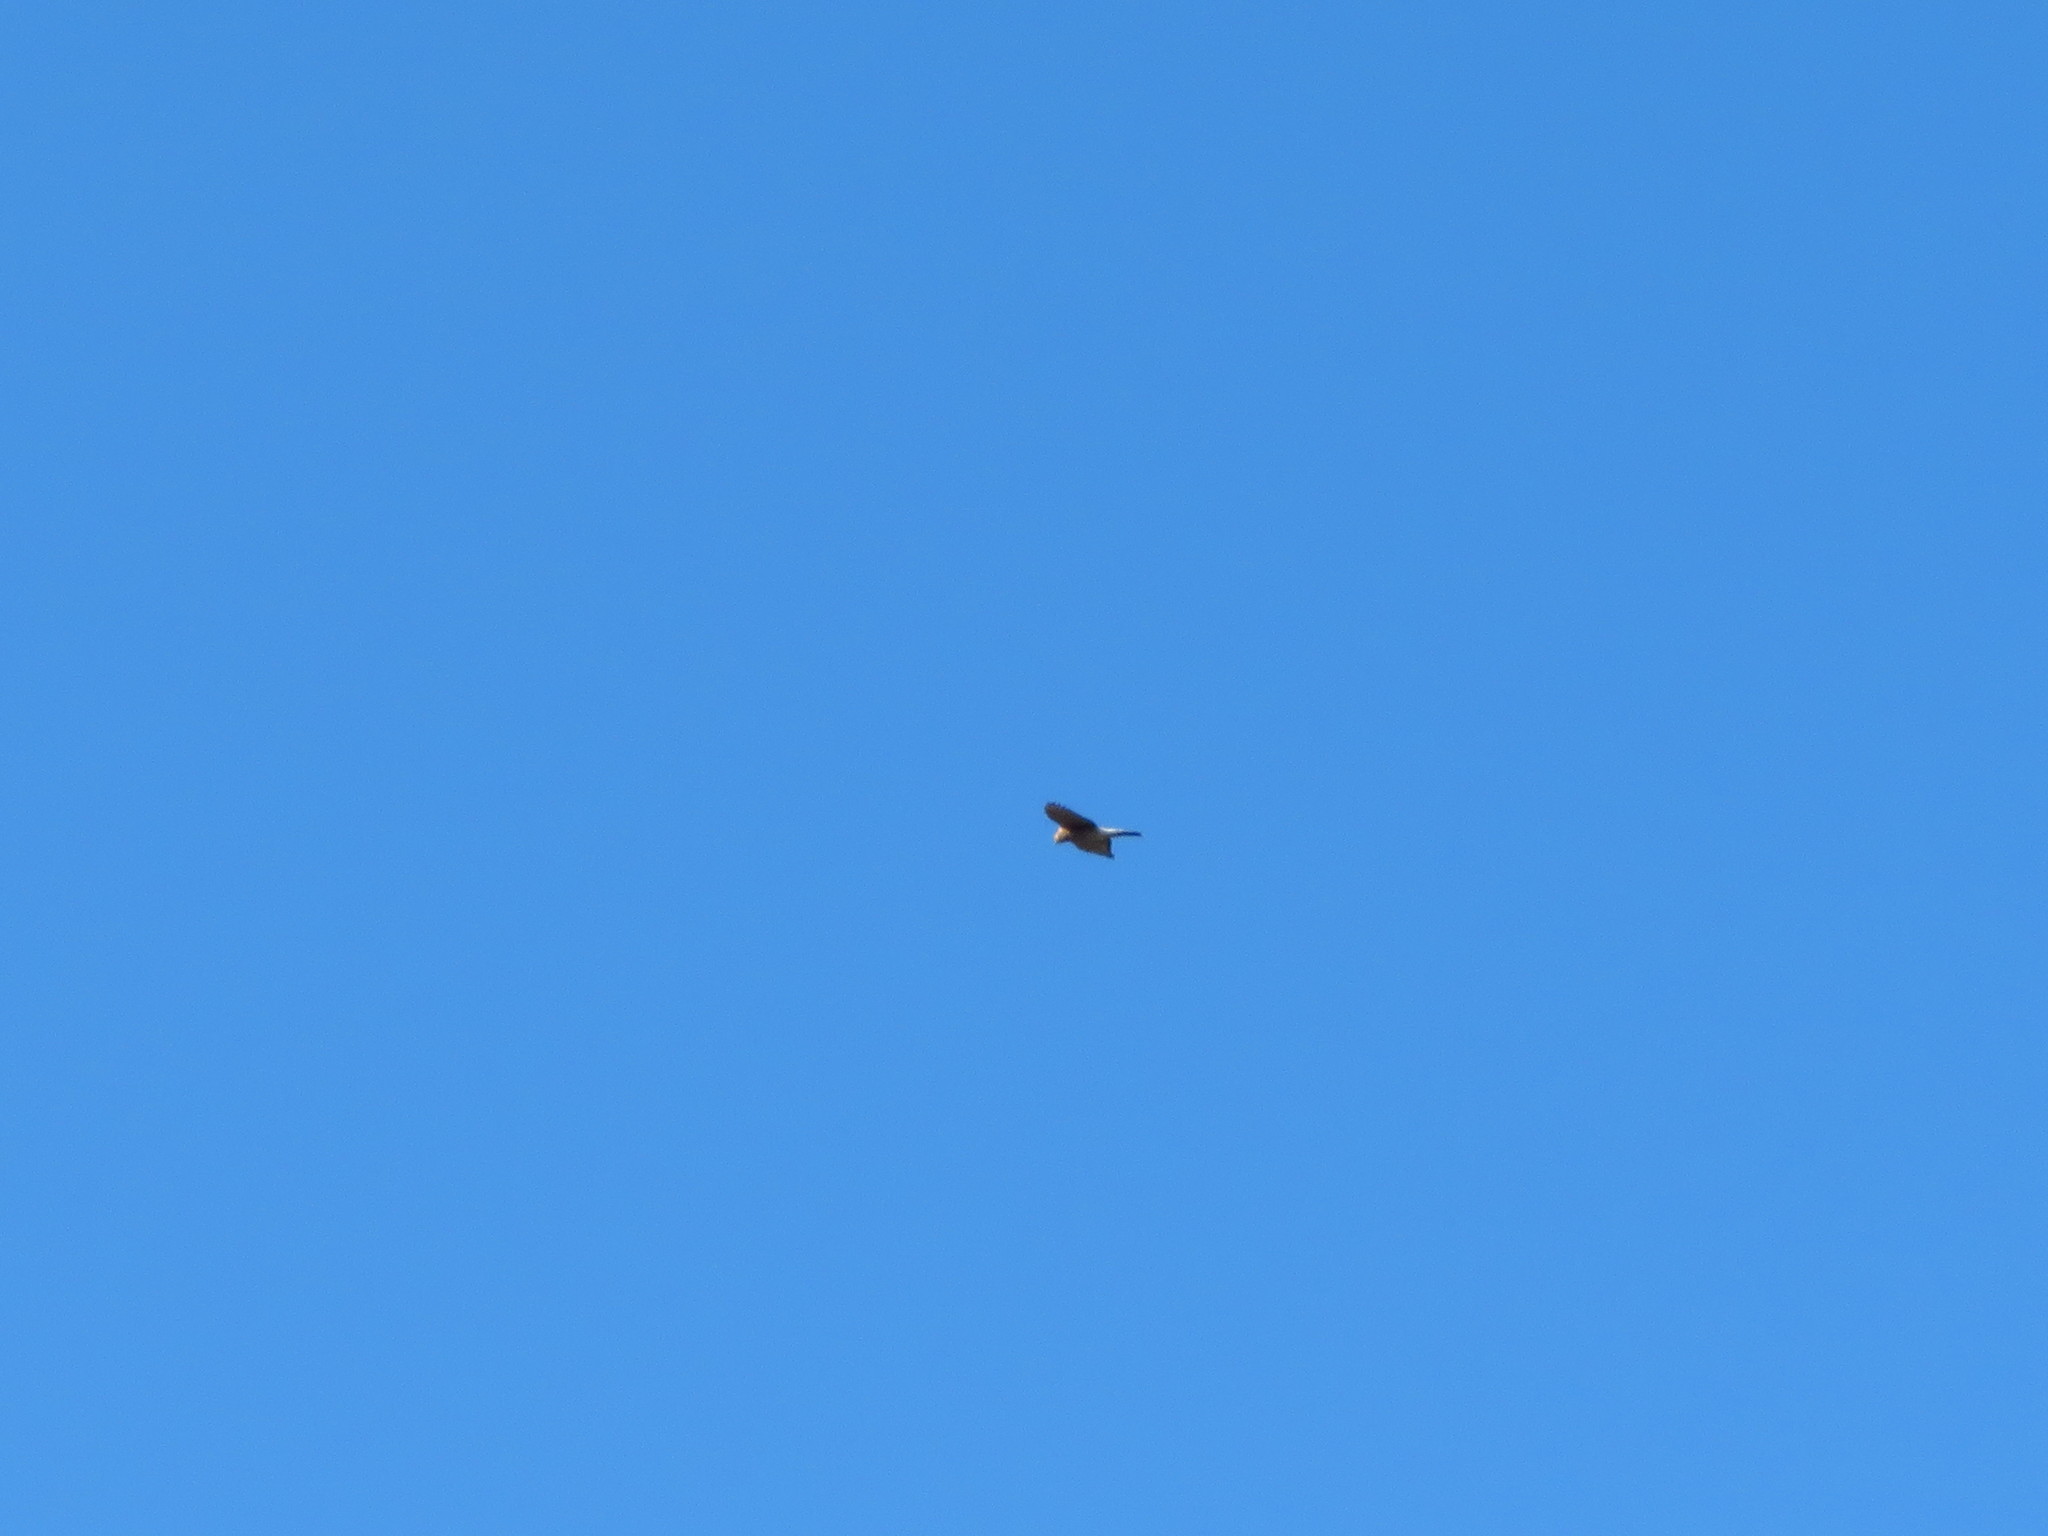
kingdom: Animalia
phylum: Chordata
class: Aves
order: Accipitriformes
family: Accipitridae
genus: Accipiter
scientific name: Accipiter cooperii
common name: Cooper's hawk
